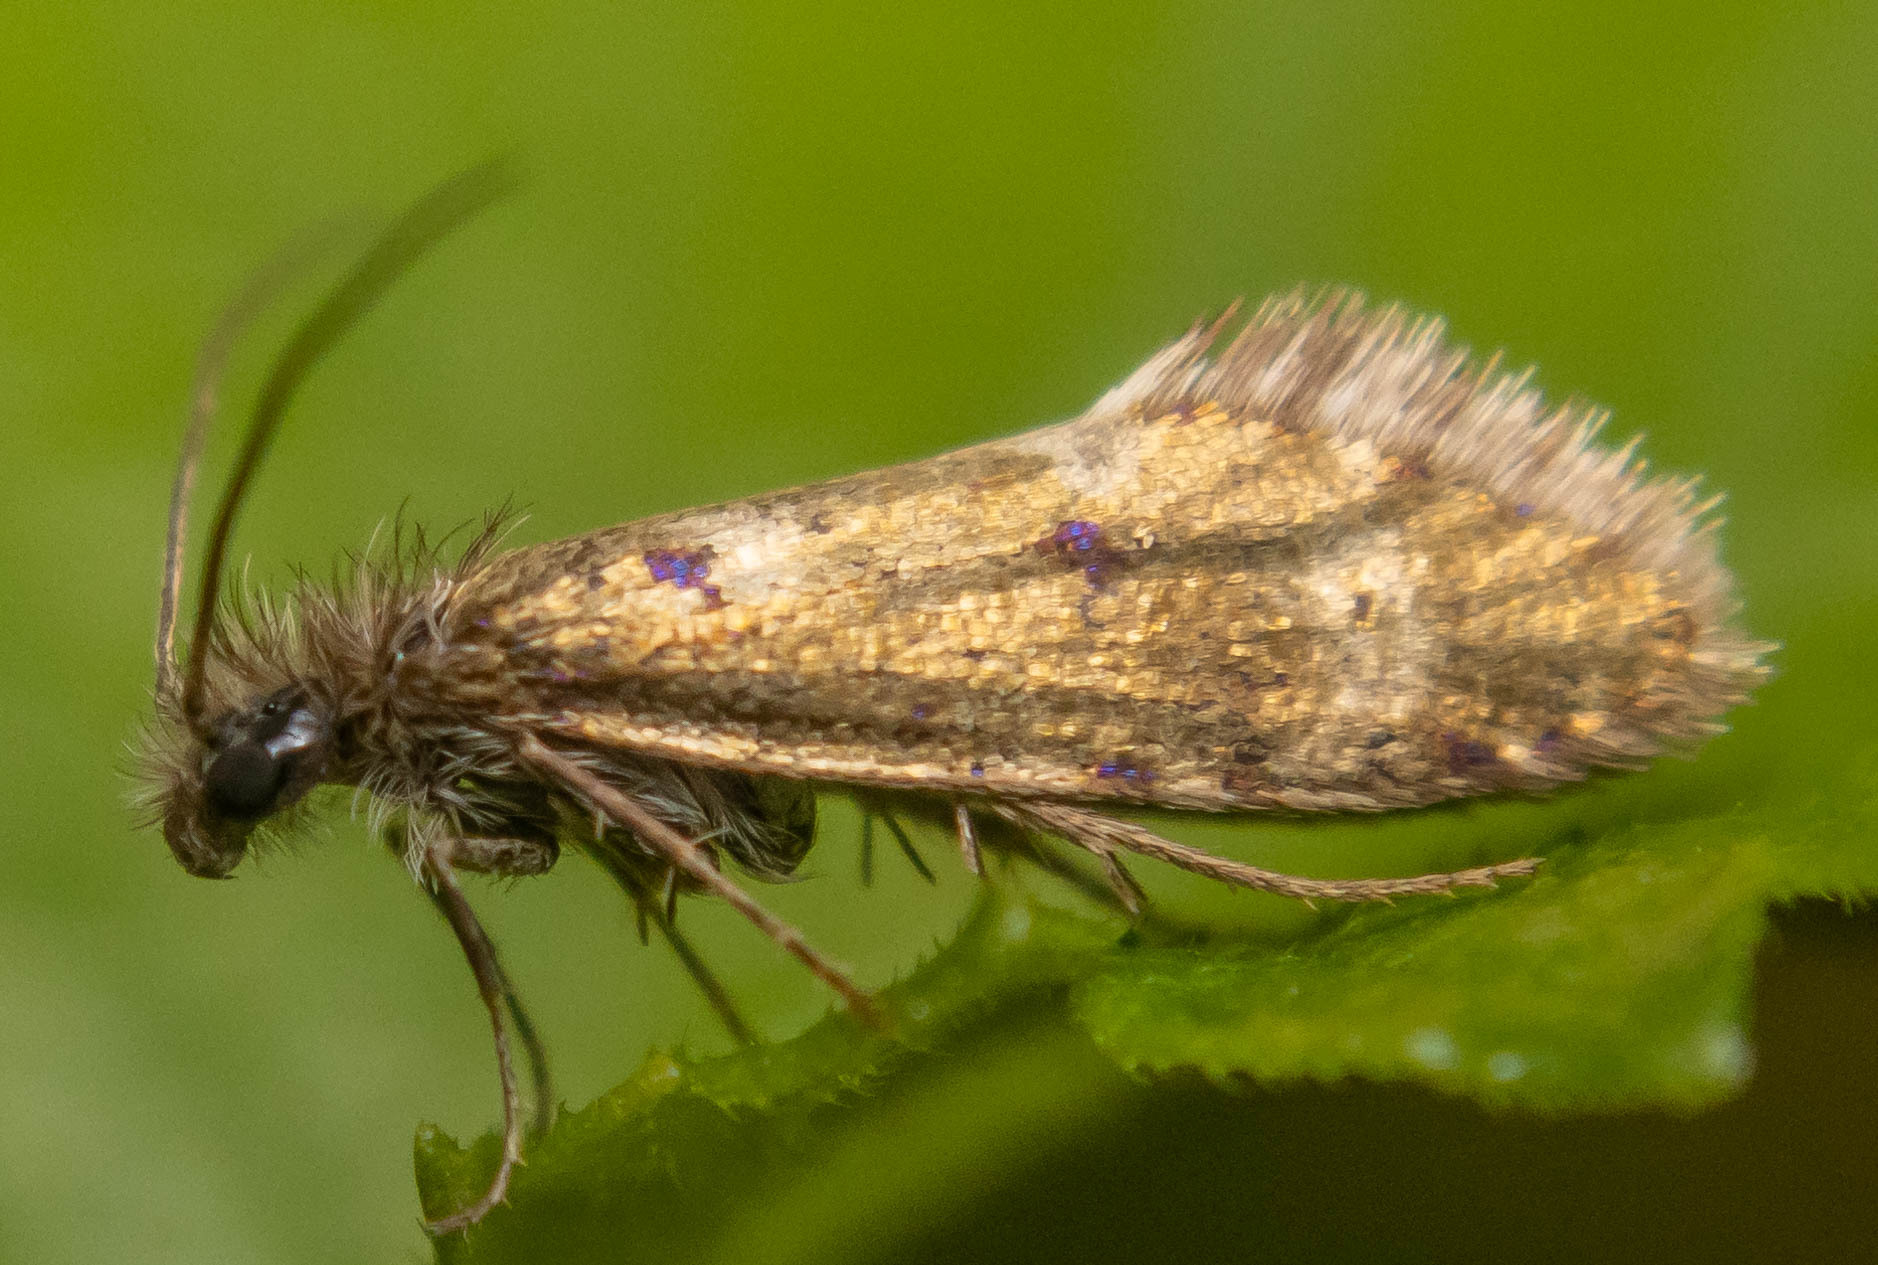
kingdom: Animalia
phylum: Arthropoda
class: Insecta
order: Lepidoptera
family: Eriocraniidae
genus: Dyseriocrania
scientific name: Dyseriocrania subpurpurella
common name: Common oak purple
